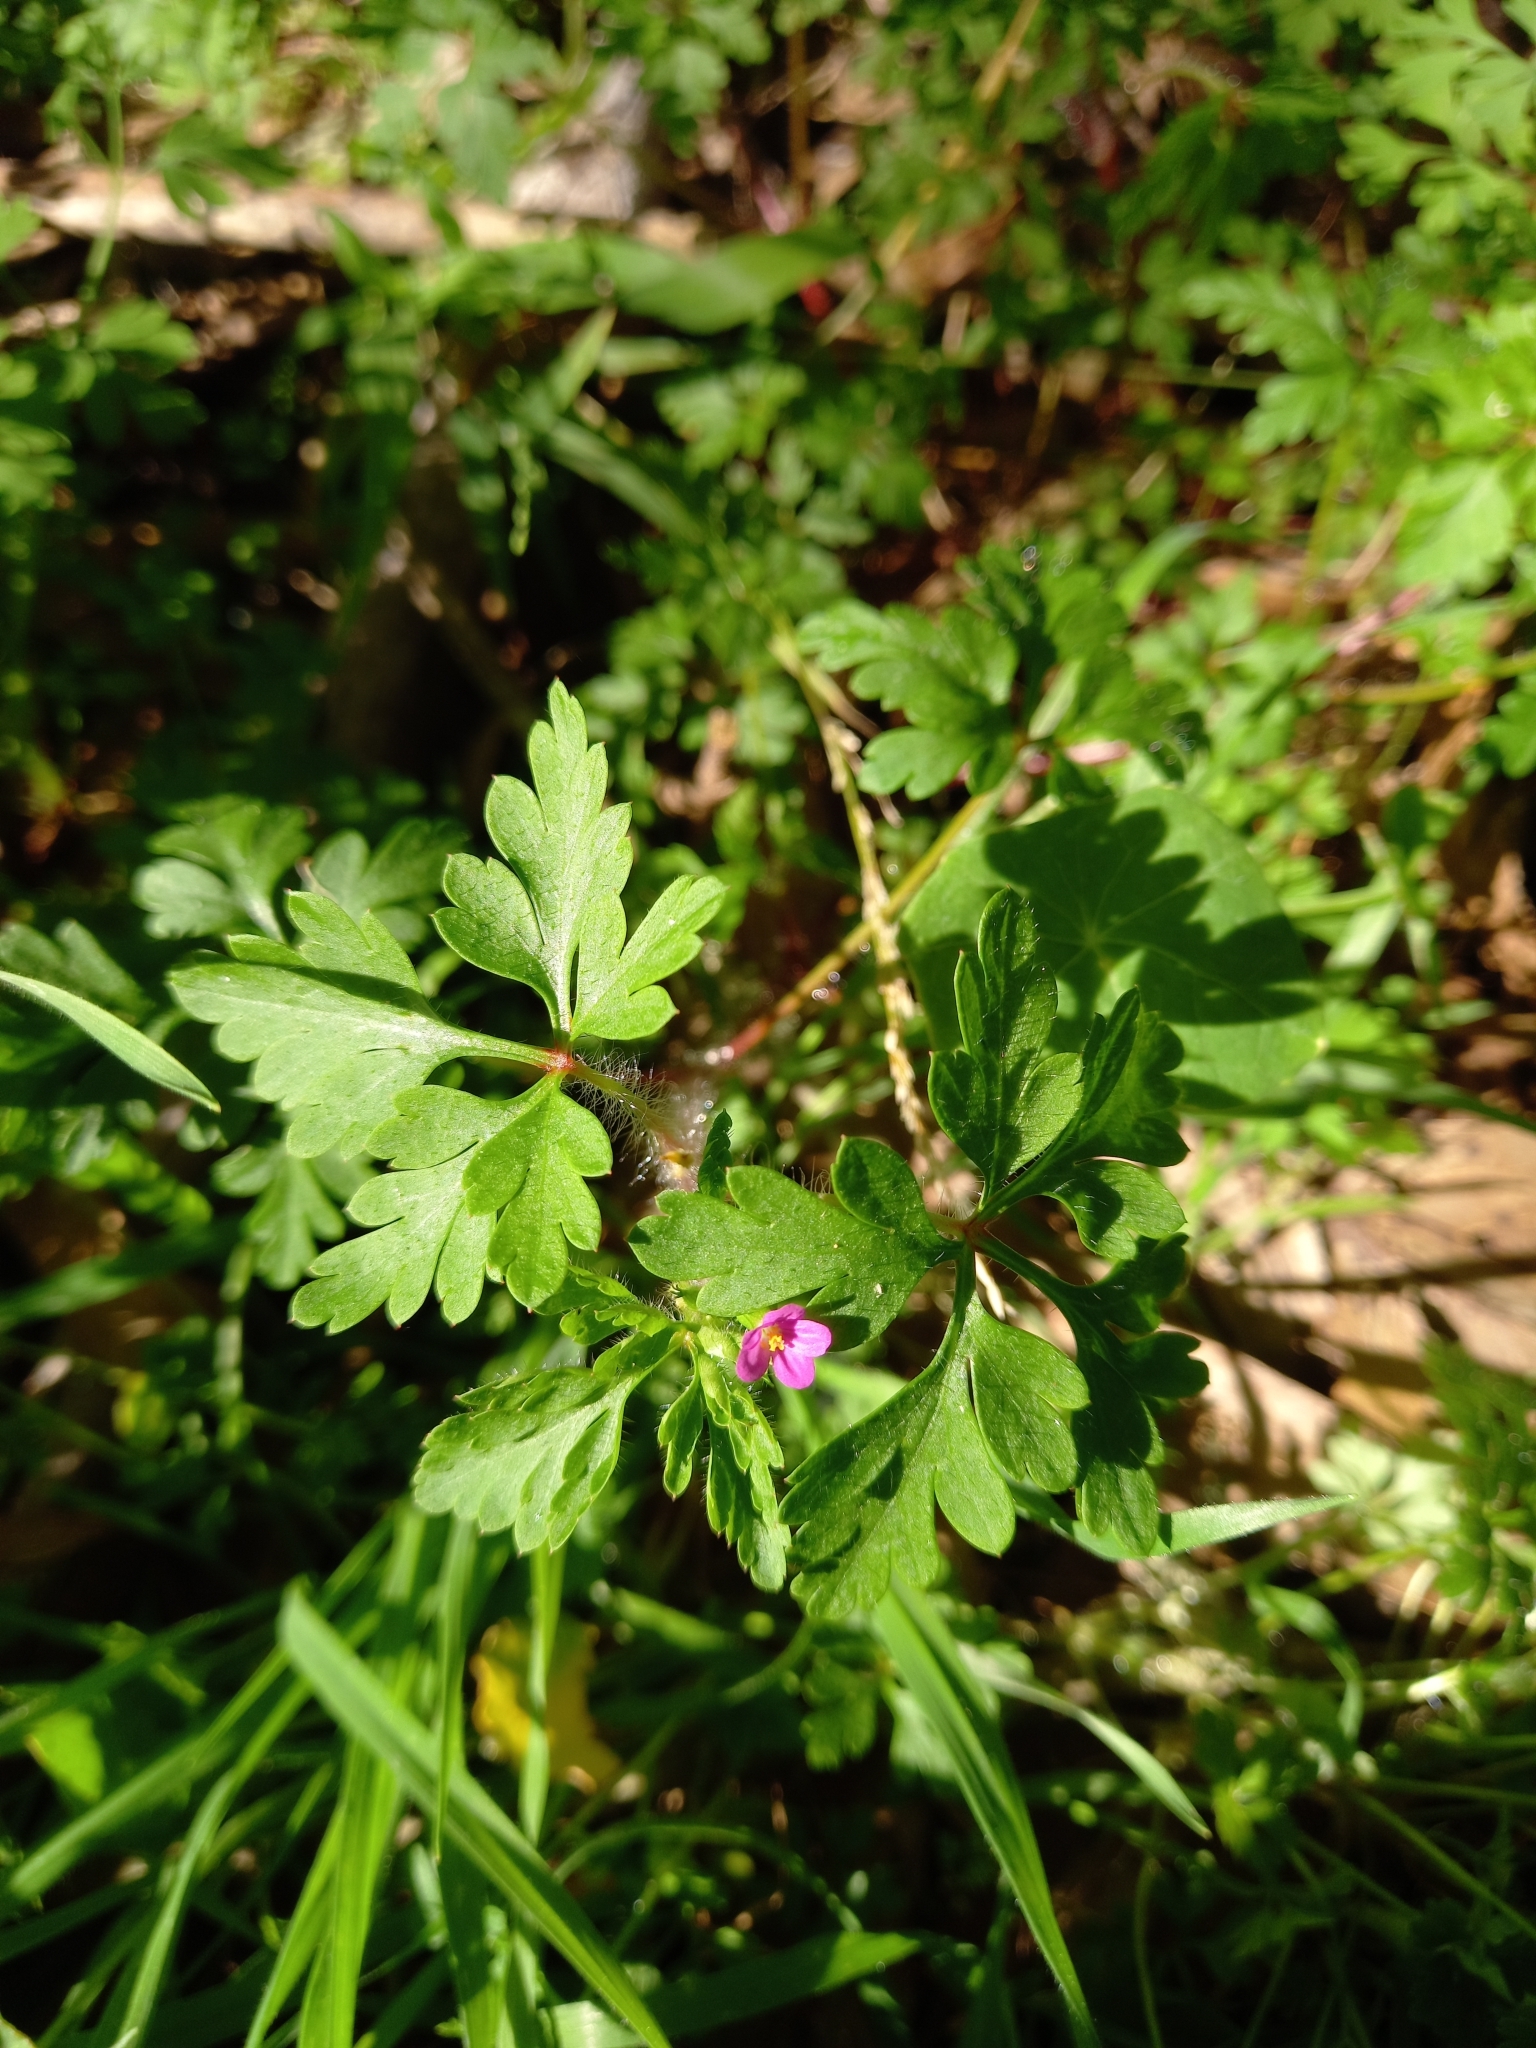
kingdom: Plantae
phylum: Tracheophyta
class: Magnoliopsida
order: Geraniales
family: Geraniaceae
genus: Geranium
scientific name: Geranium purpureum
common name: Little-robin
